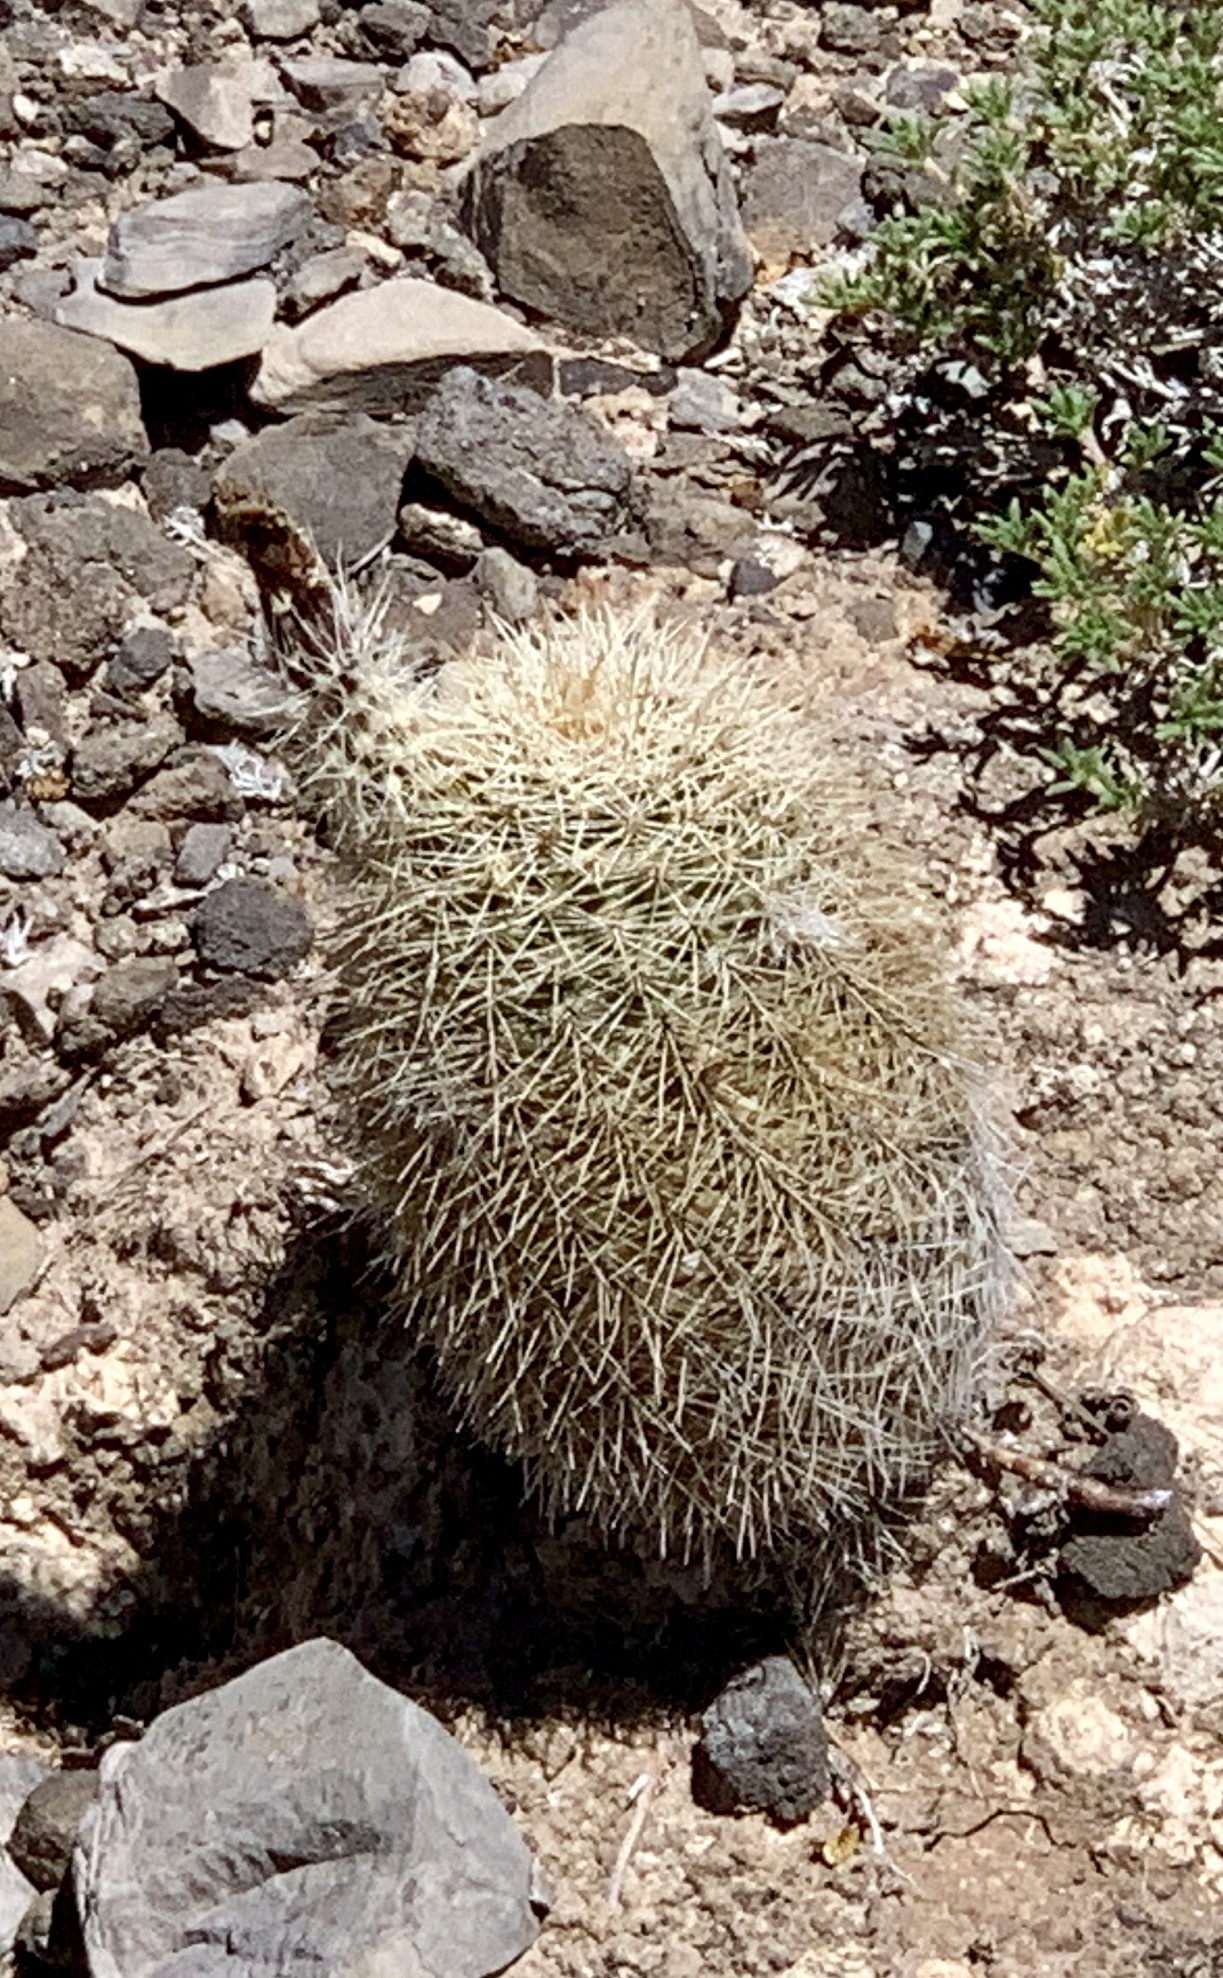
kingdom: Plantae
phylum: Tracheophyta
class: Magnoliopsida
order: Caryophyllales
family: Cactaceae
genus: Echinocereus
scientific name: Echinocereus dasyacanthus
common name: Spiny hedgehog cactus
